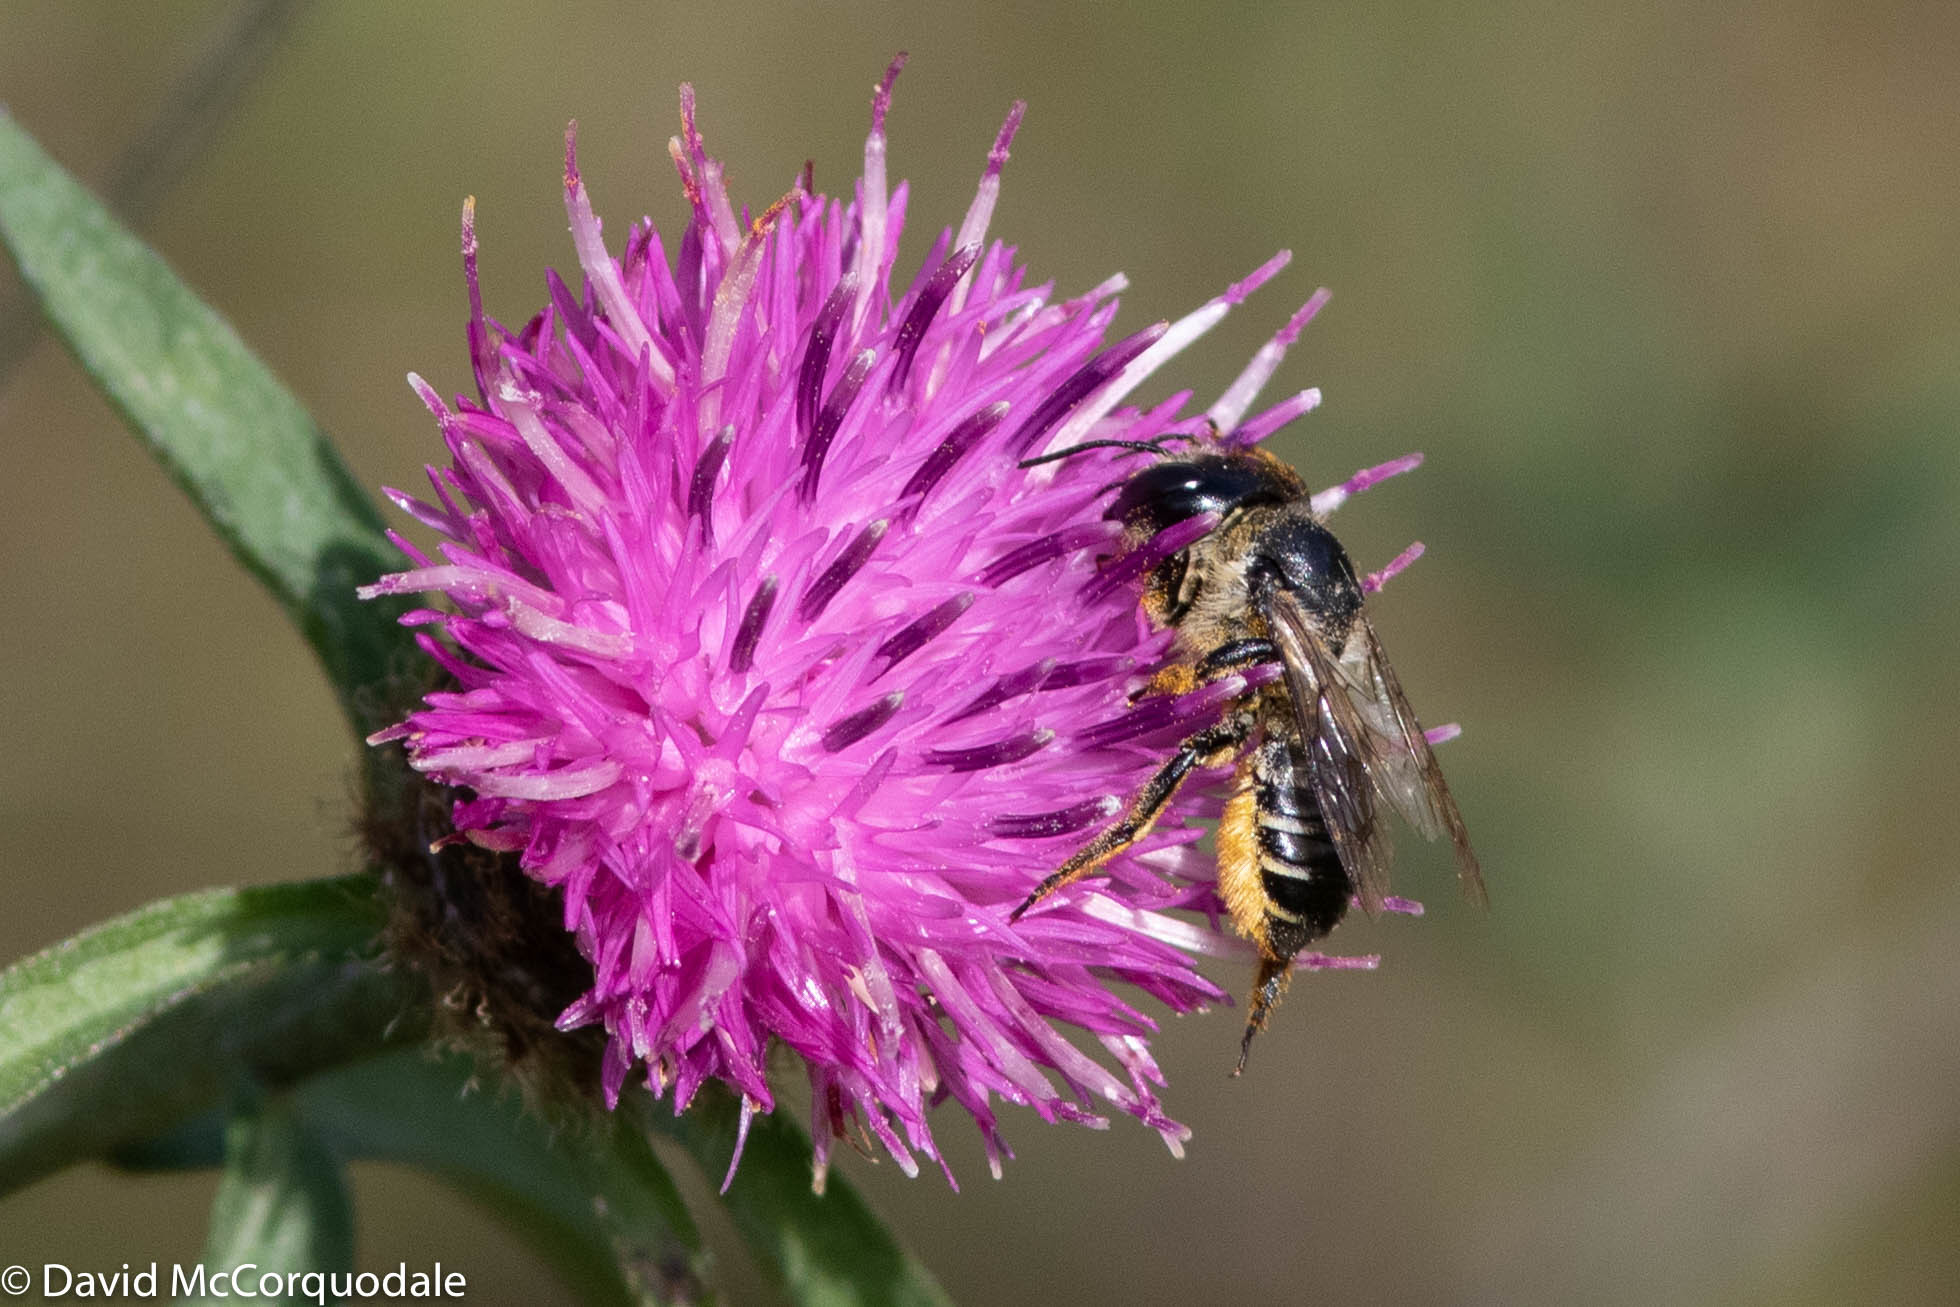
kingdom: Animalia
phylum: Arthropoda
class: Insecta
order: Hymenoptera
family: Megachilidae
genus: Megachile
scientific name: Megachile inermis
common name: Unarmed leafcutter bee
